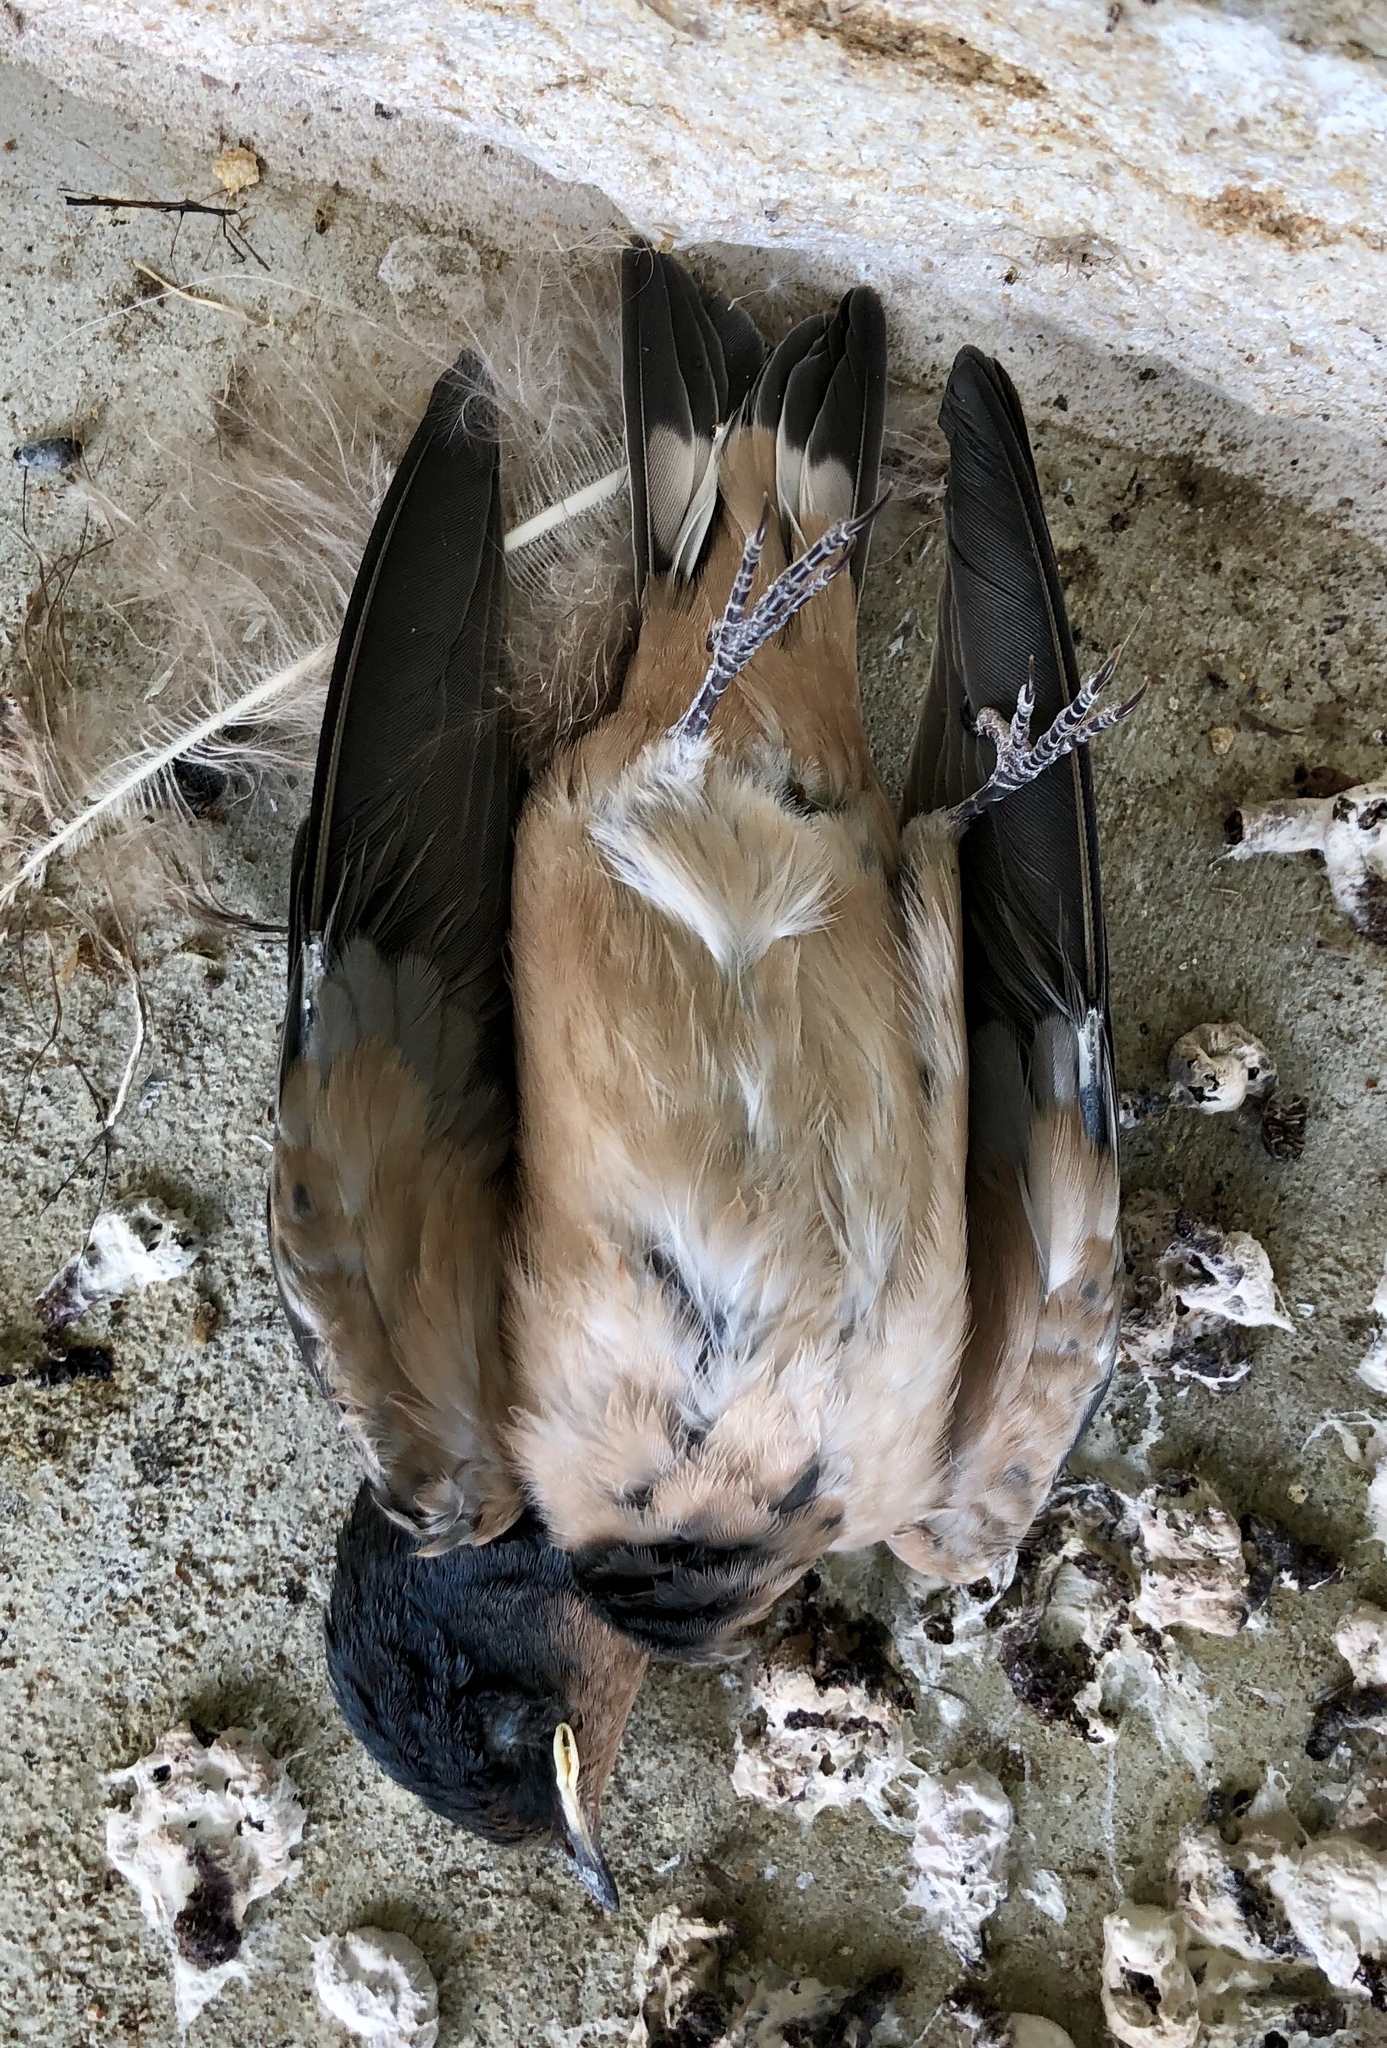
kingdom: Animalia
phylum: Chordata
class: Aves
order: Passeriformes
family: Hirundinidae
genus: Hirundo
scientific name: Hirundo rustica
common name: Barn swallow
